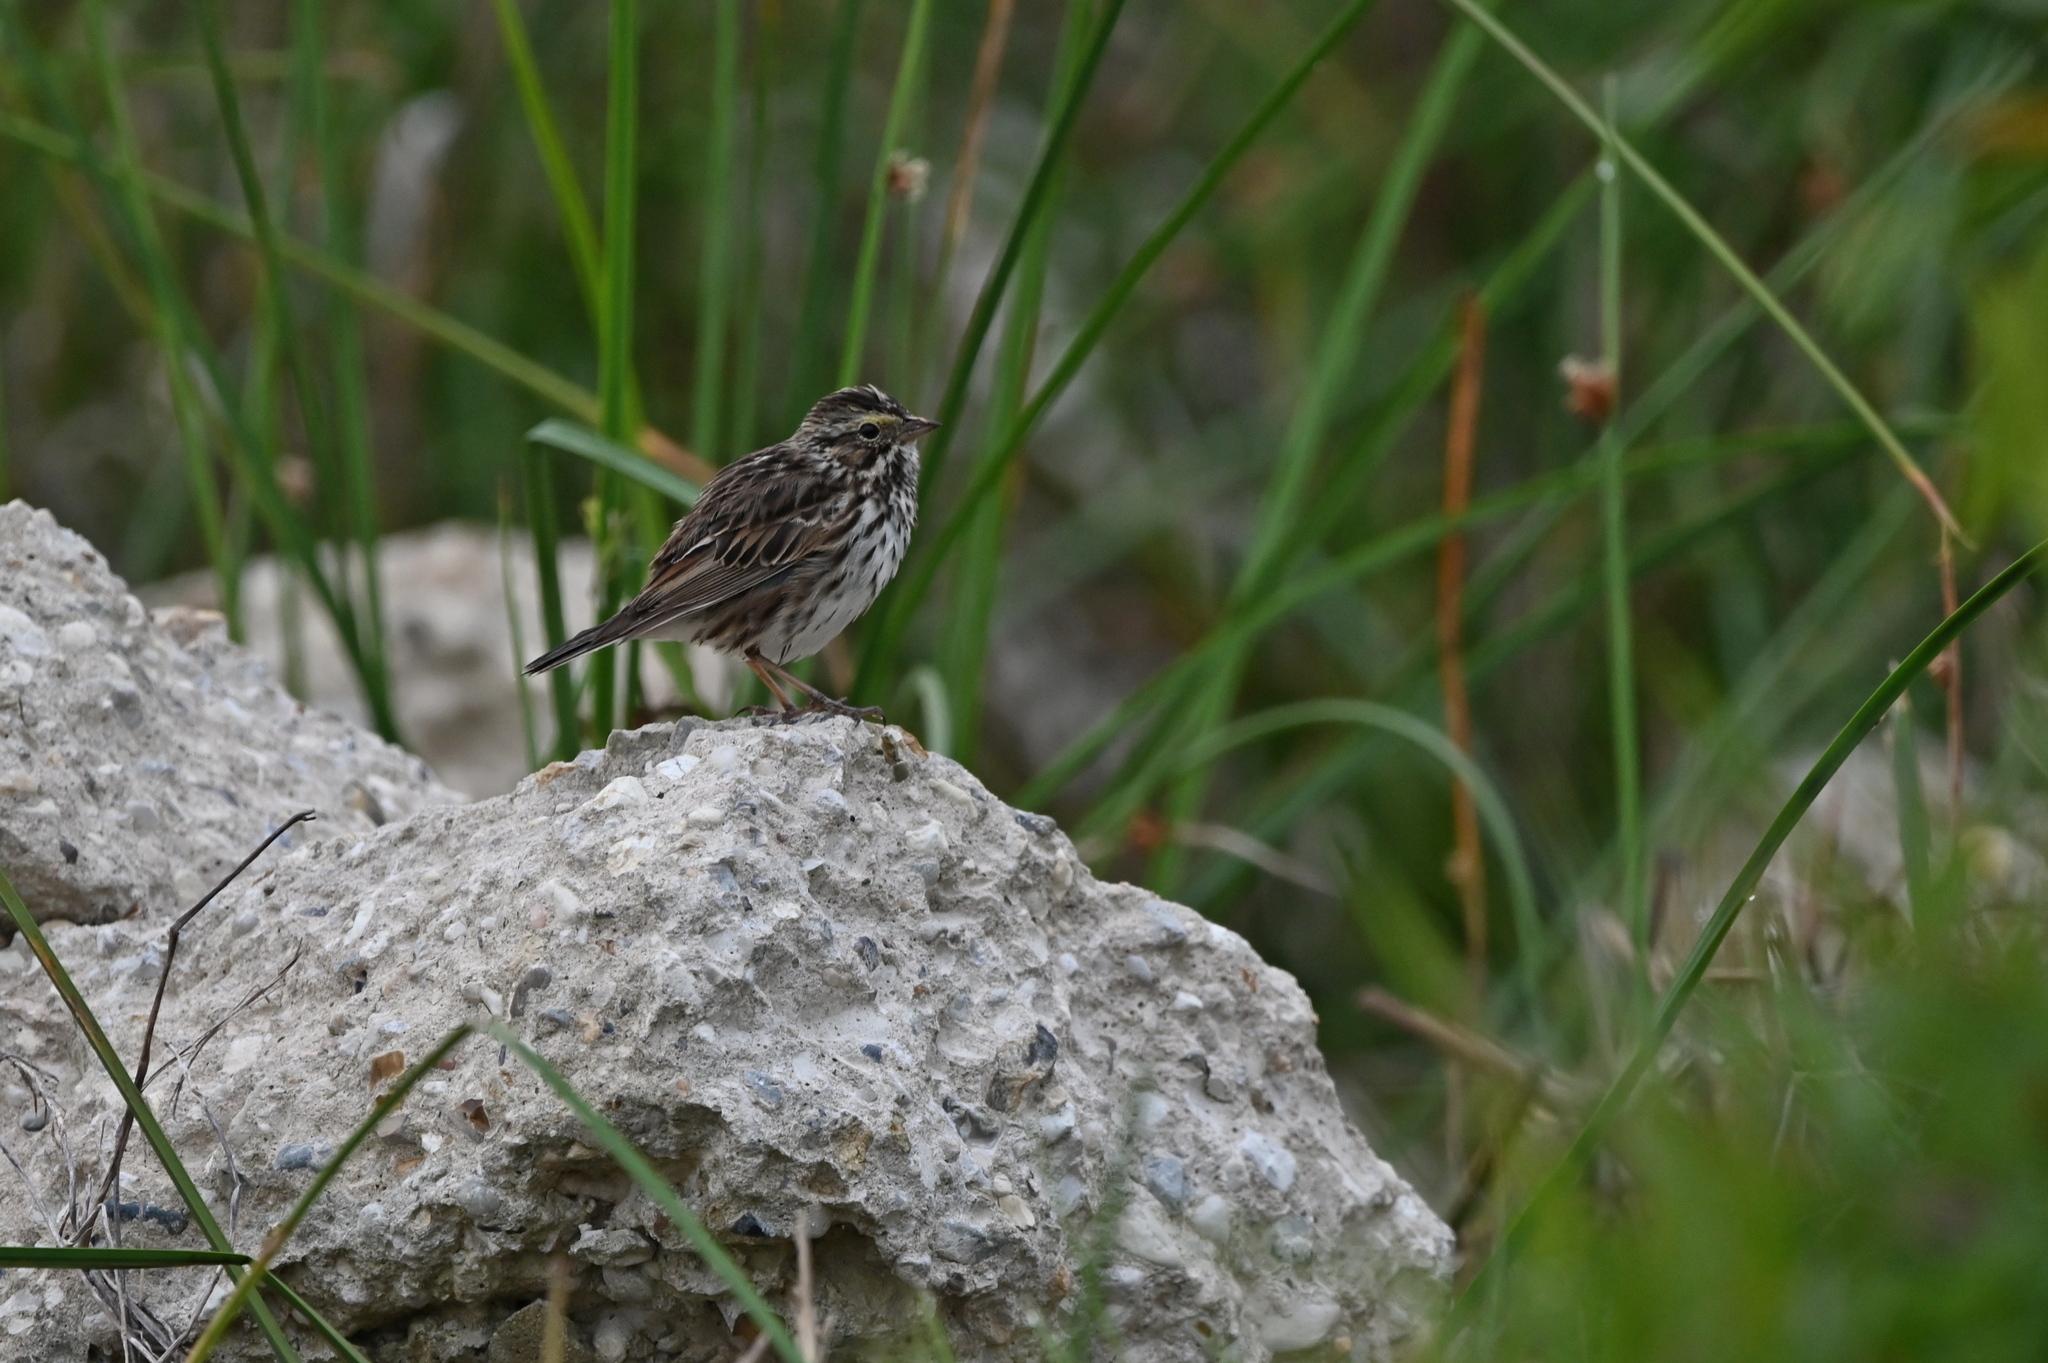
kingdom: Animalia
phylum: Chordata
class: Aves
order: Passeriformes
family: Passerellidae
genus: Passerculus
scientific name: Passerculus sandwichensis
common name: Savannah sparrow
